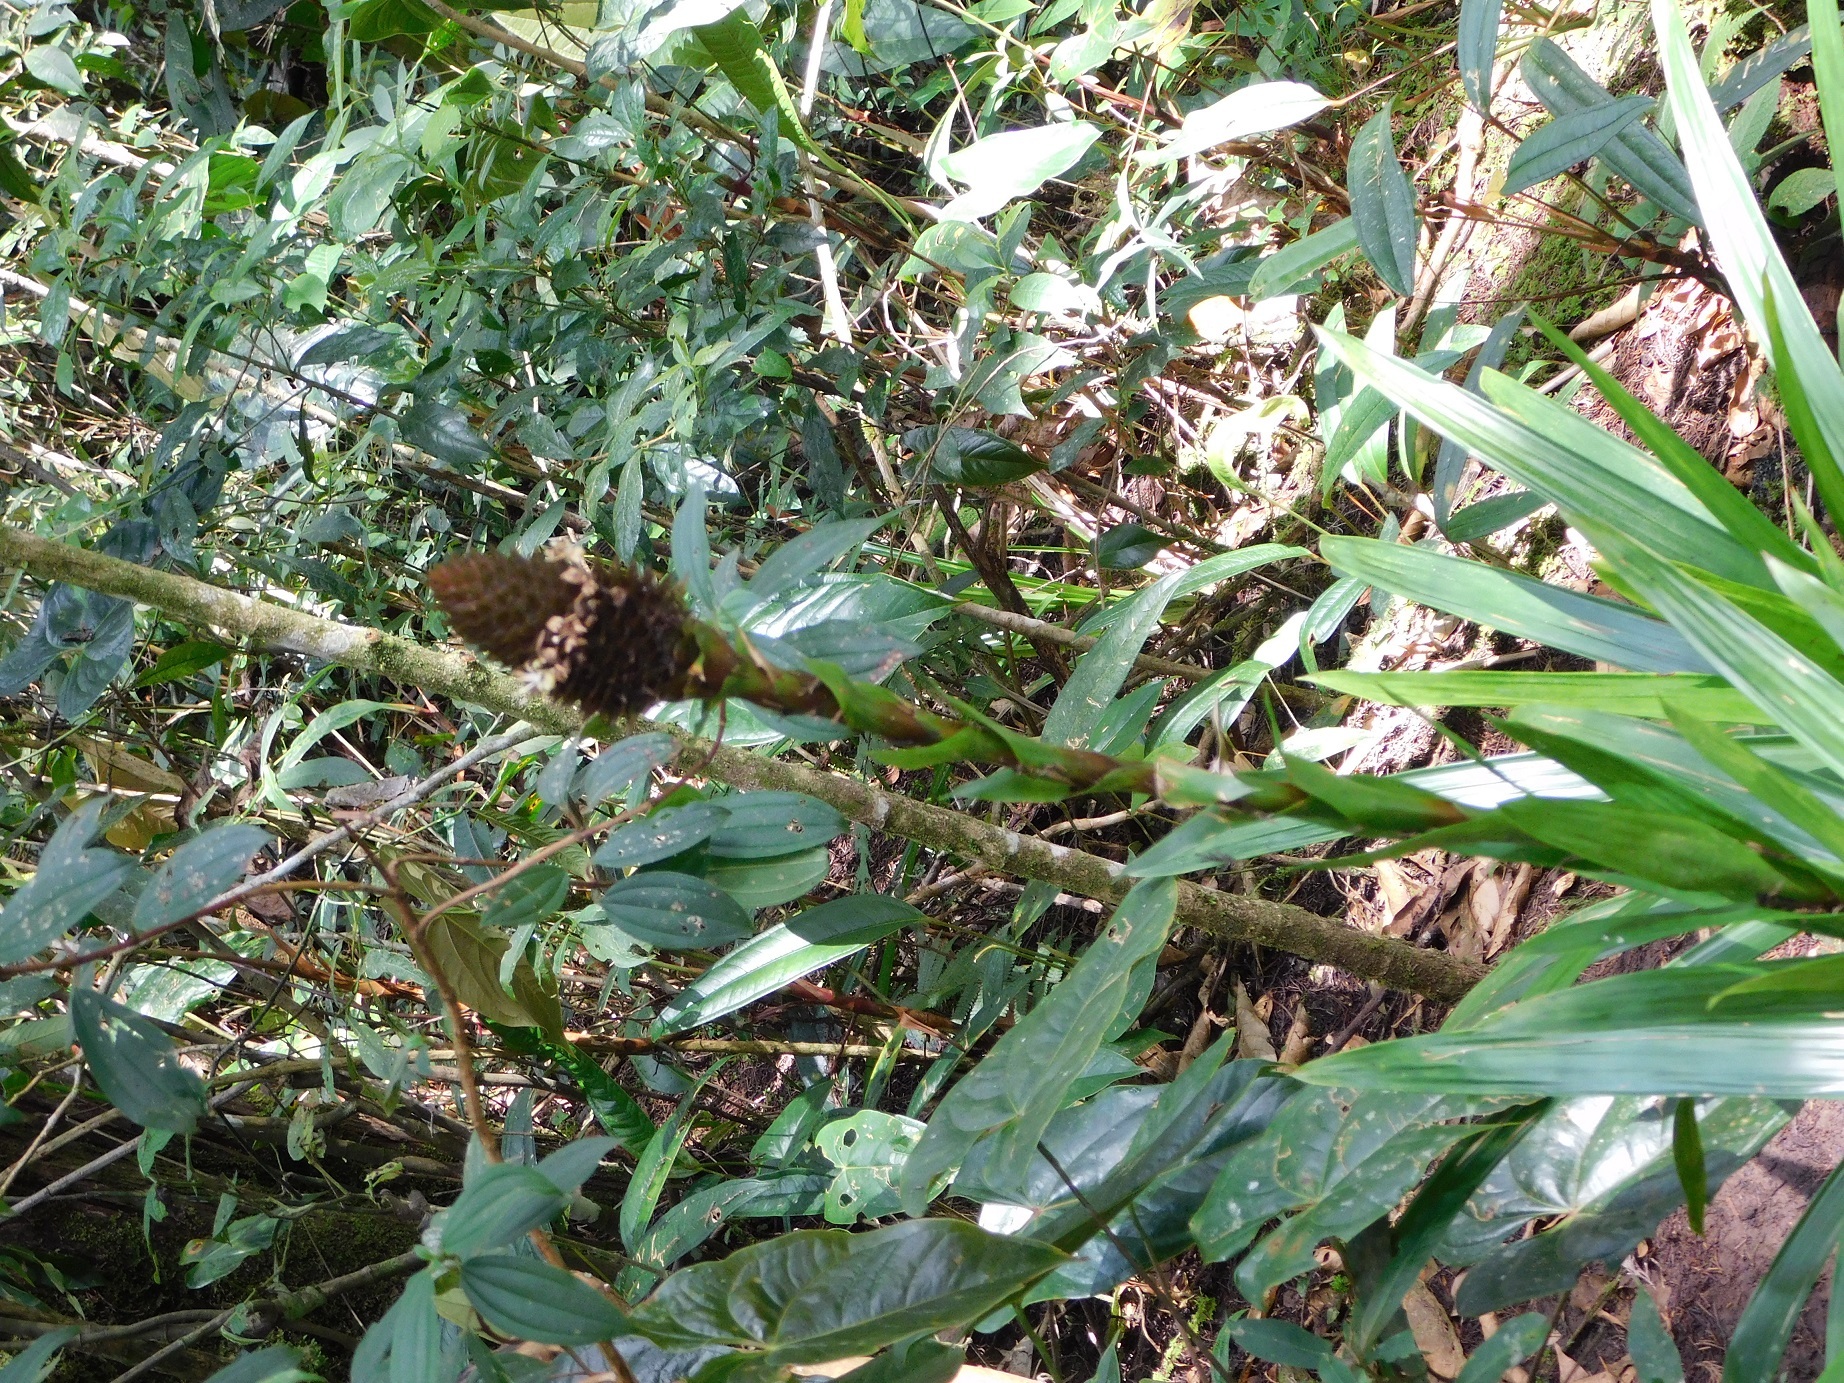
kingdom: Plantae
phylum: Tracheophyta
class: Liliopsida
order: Poales
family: Bromeliaceae
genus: Guzmania
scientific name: Guzmania triangularis
